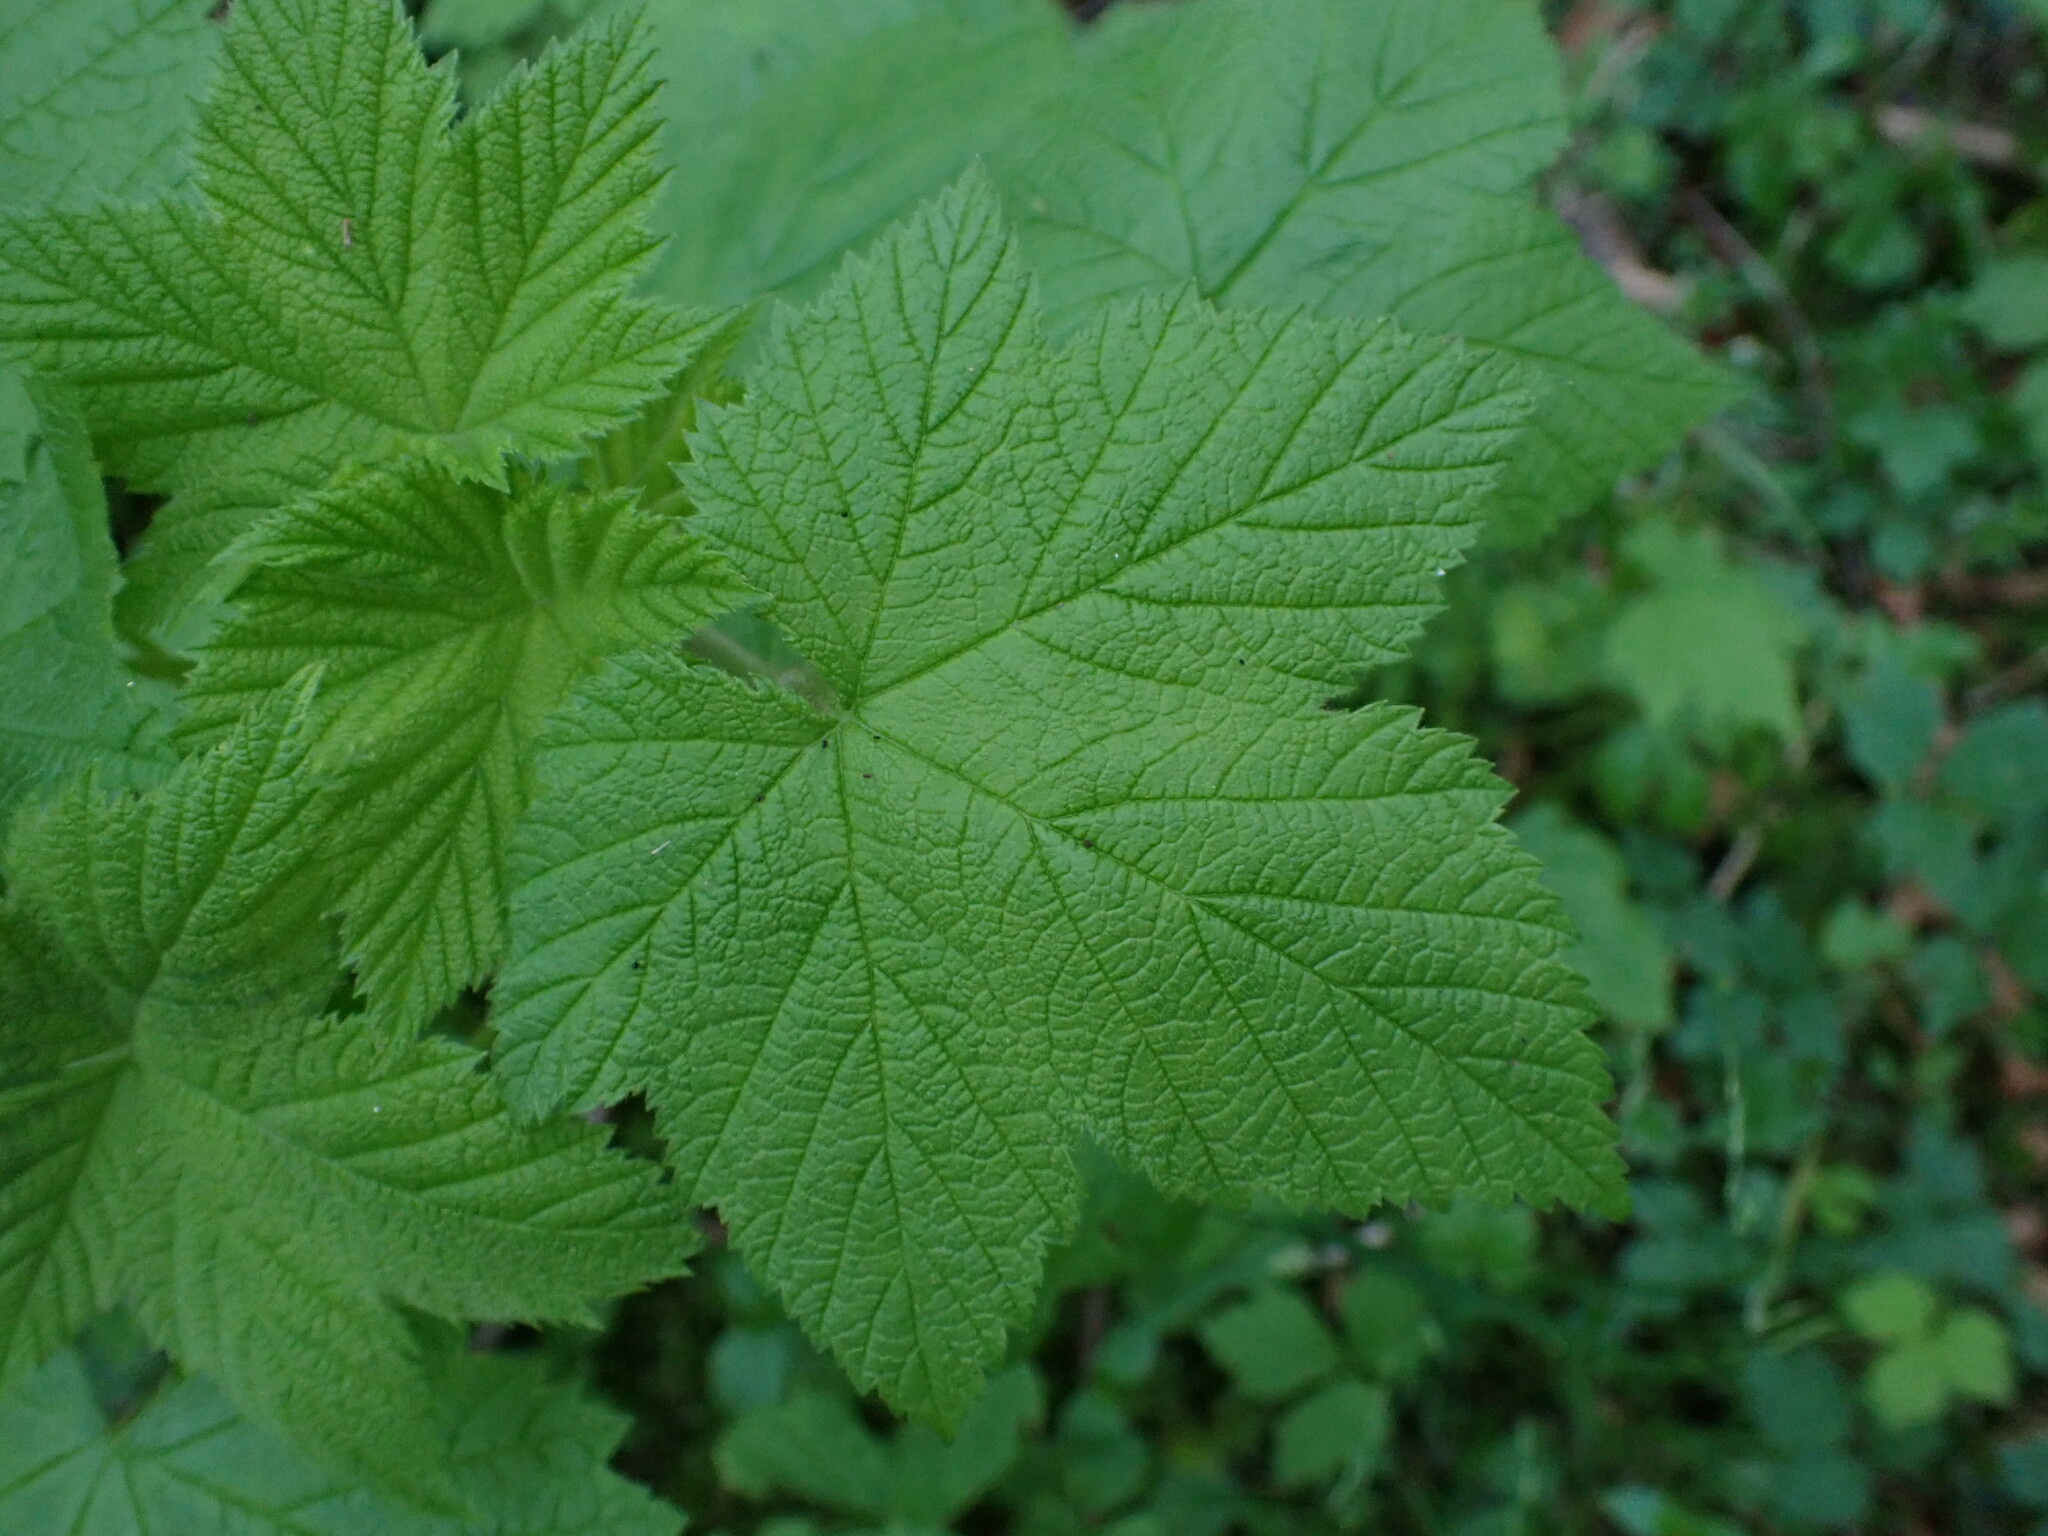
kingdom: Plantae
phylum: Tracheophyta
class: Magnoliopsida
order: Rosales
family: Rosaceae
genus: Rubus
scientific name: Rubus parviflorus
